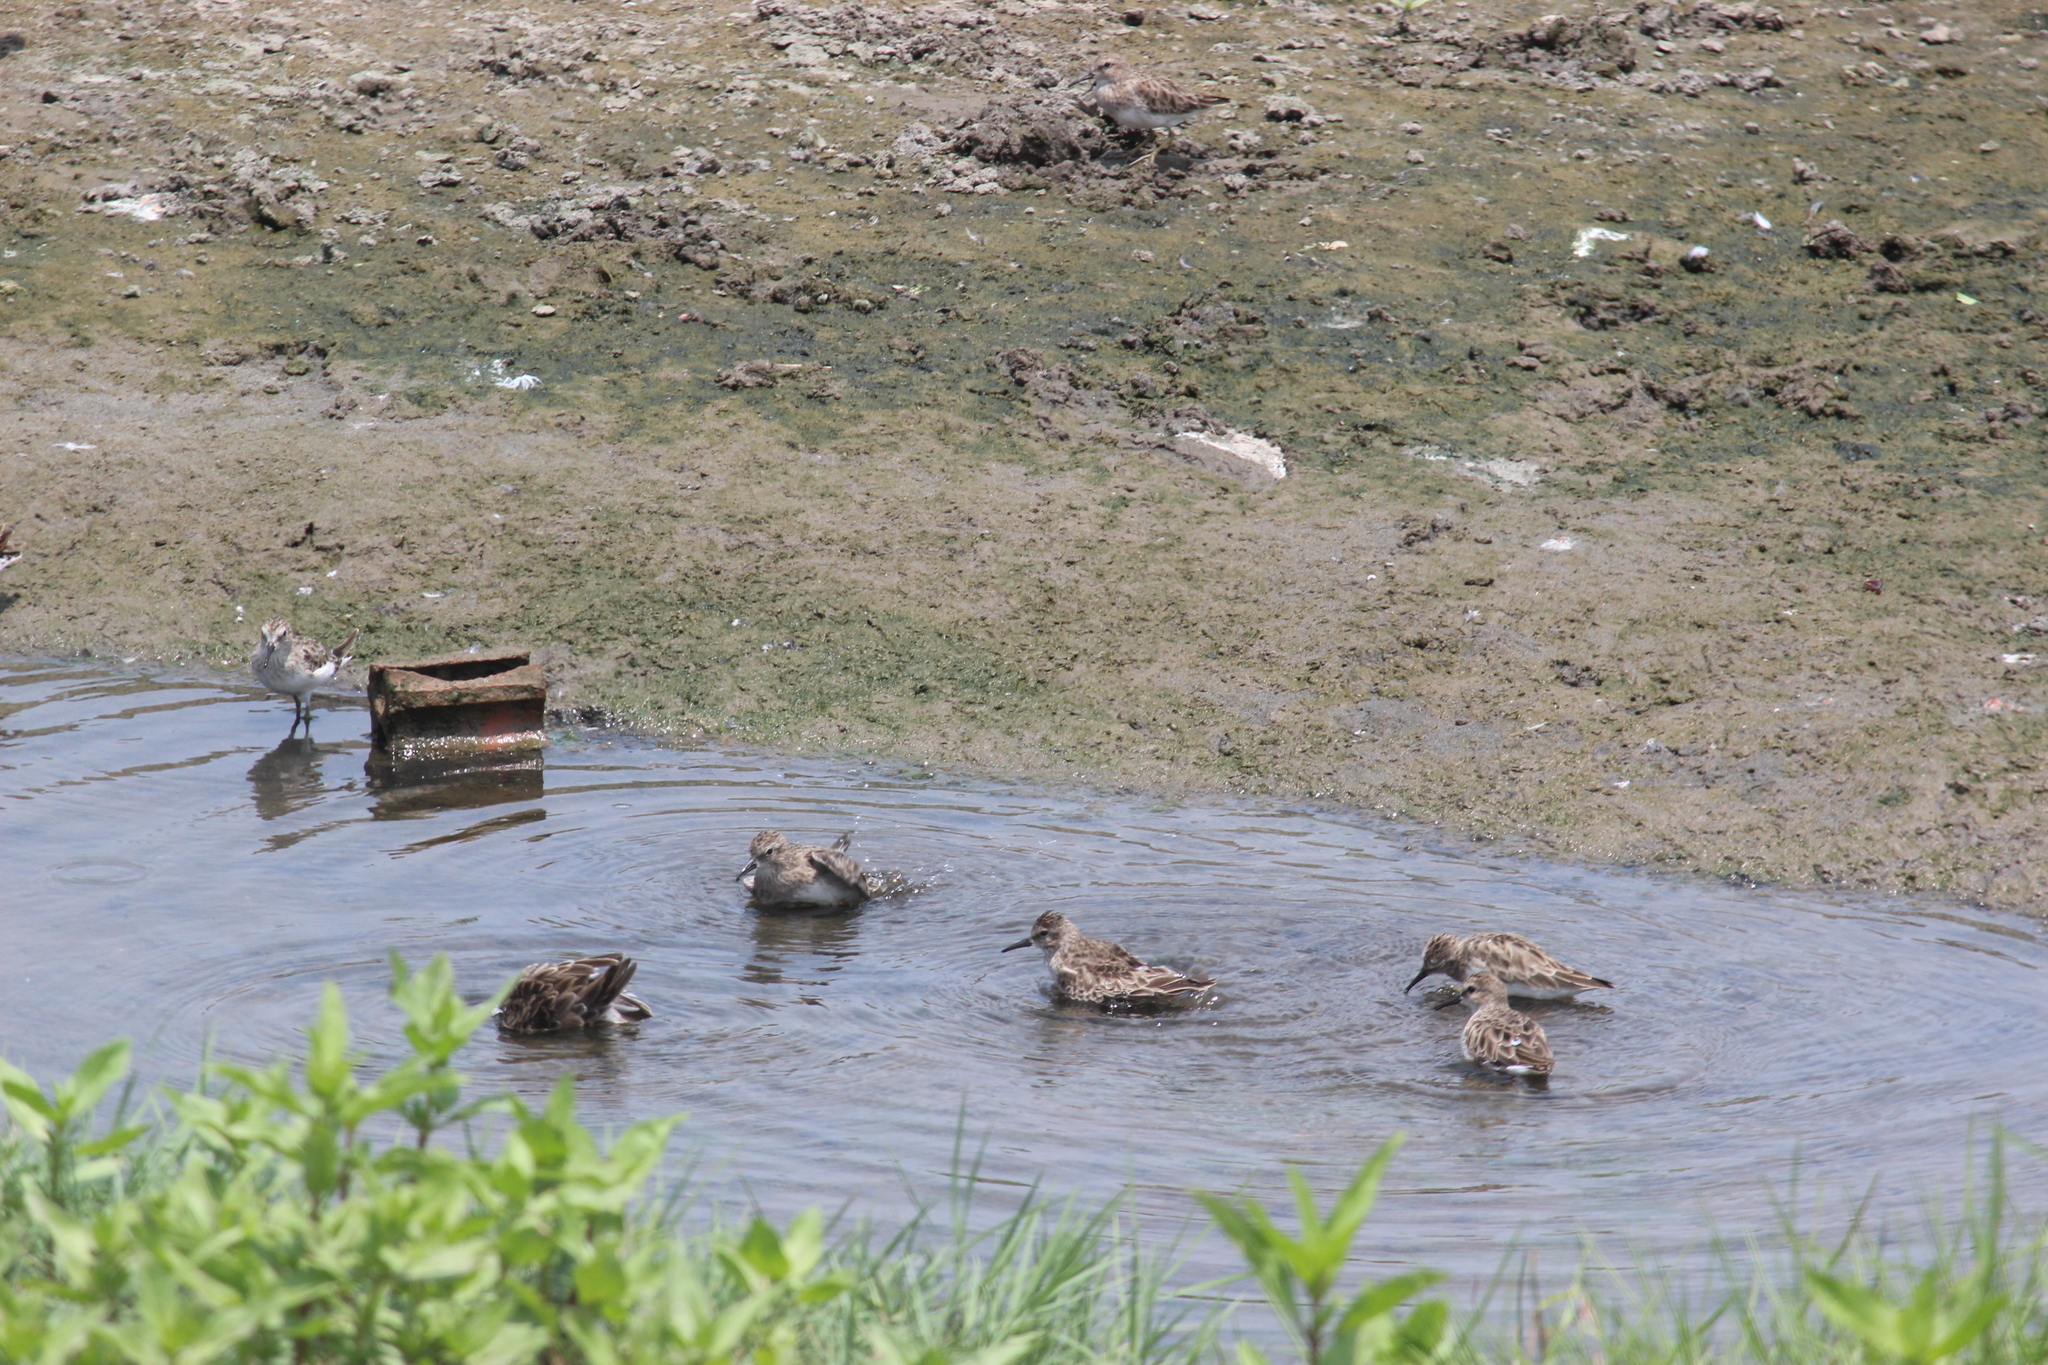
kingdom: Animalia
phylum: Chordata
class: Aves
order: Charadriiformes
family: Scolopacidae
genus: Calidris
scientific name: Calidris minutilla
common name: Least sandpiper
